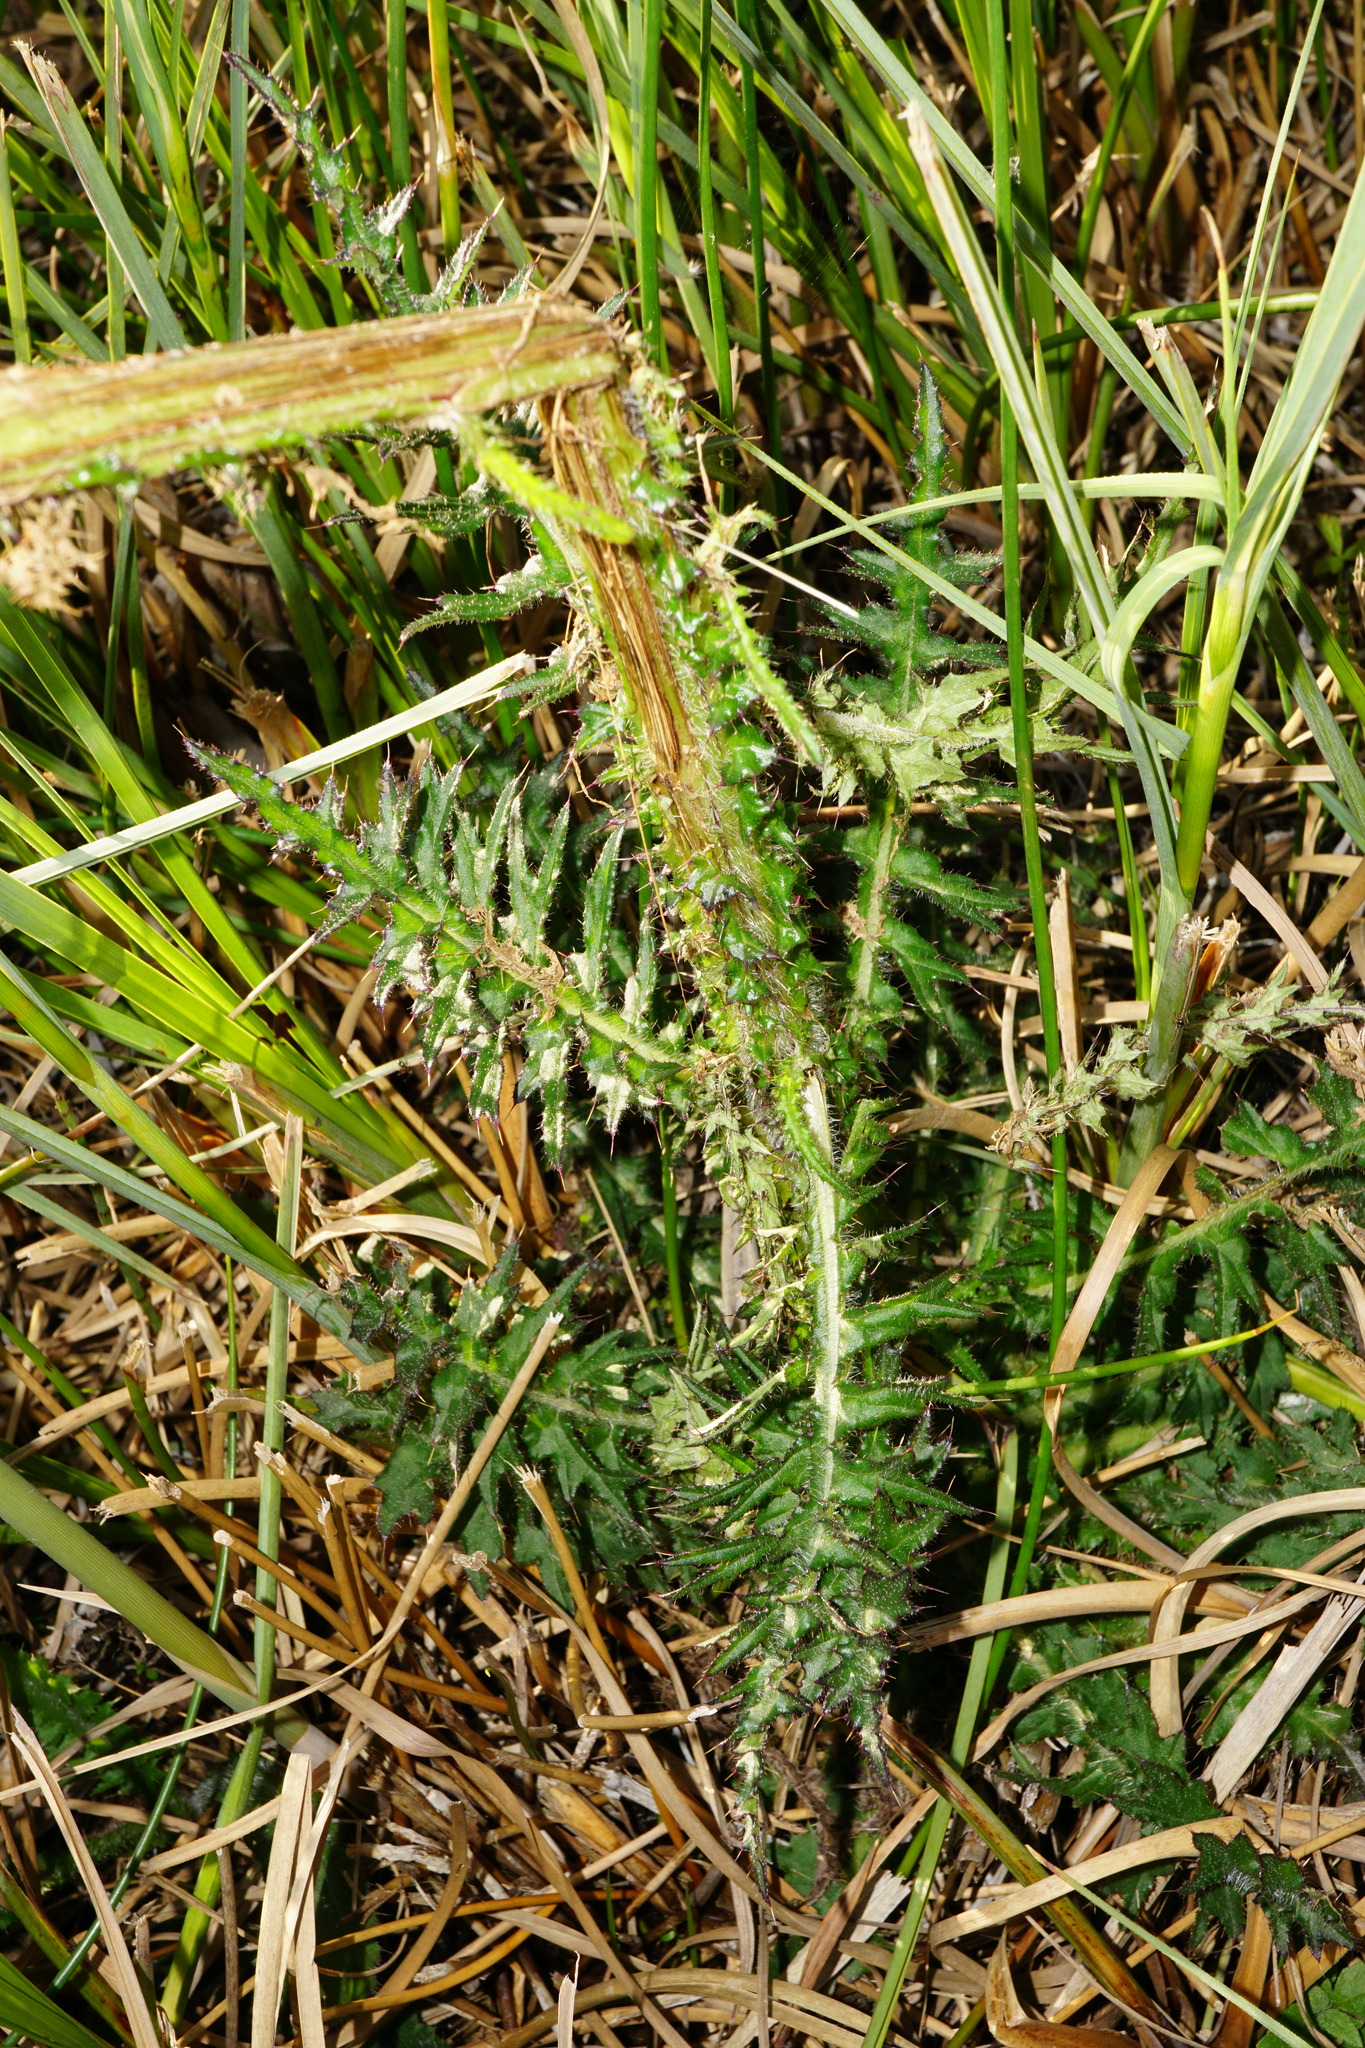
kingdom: Plantae
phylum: Tracheophyta
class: Magnoliopsida
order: Asterales
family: Asteraceae
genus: Cirsium
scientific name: Cirsium palustre
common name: Marsh thistle
